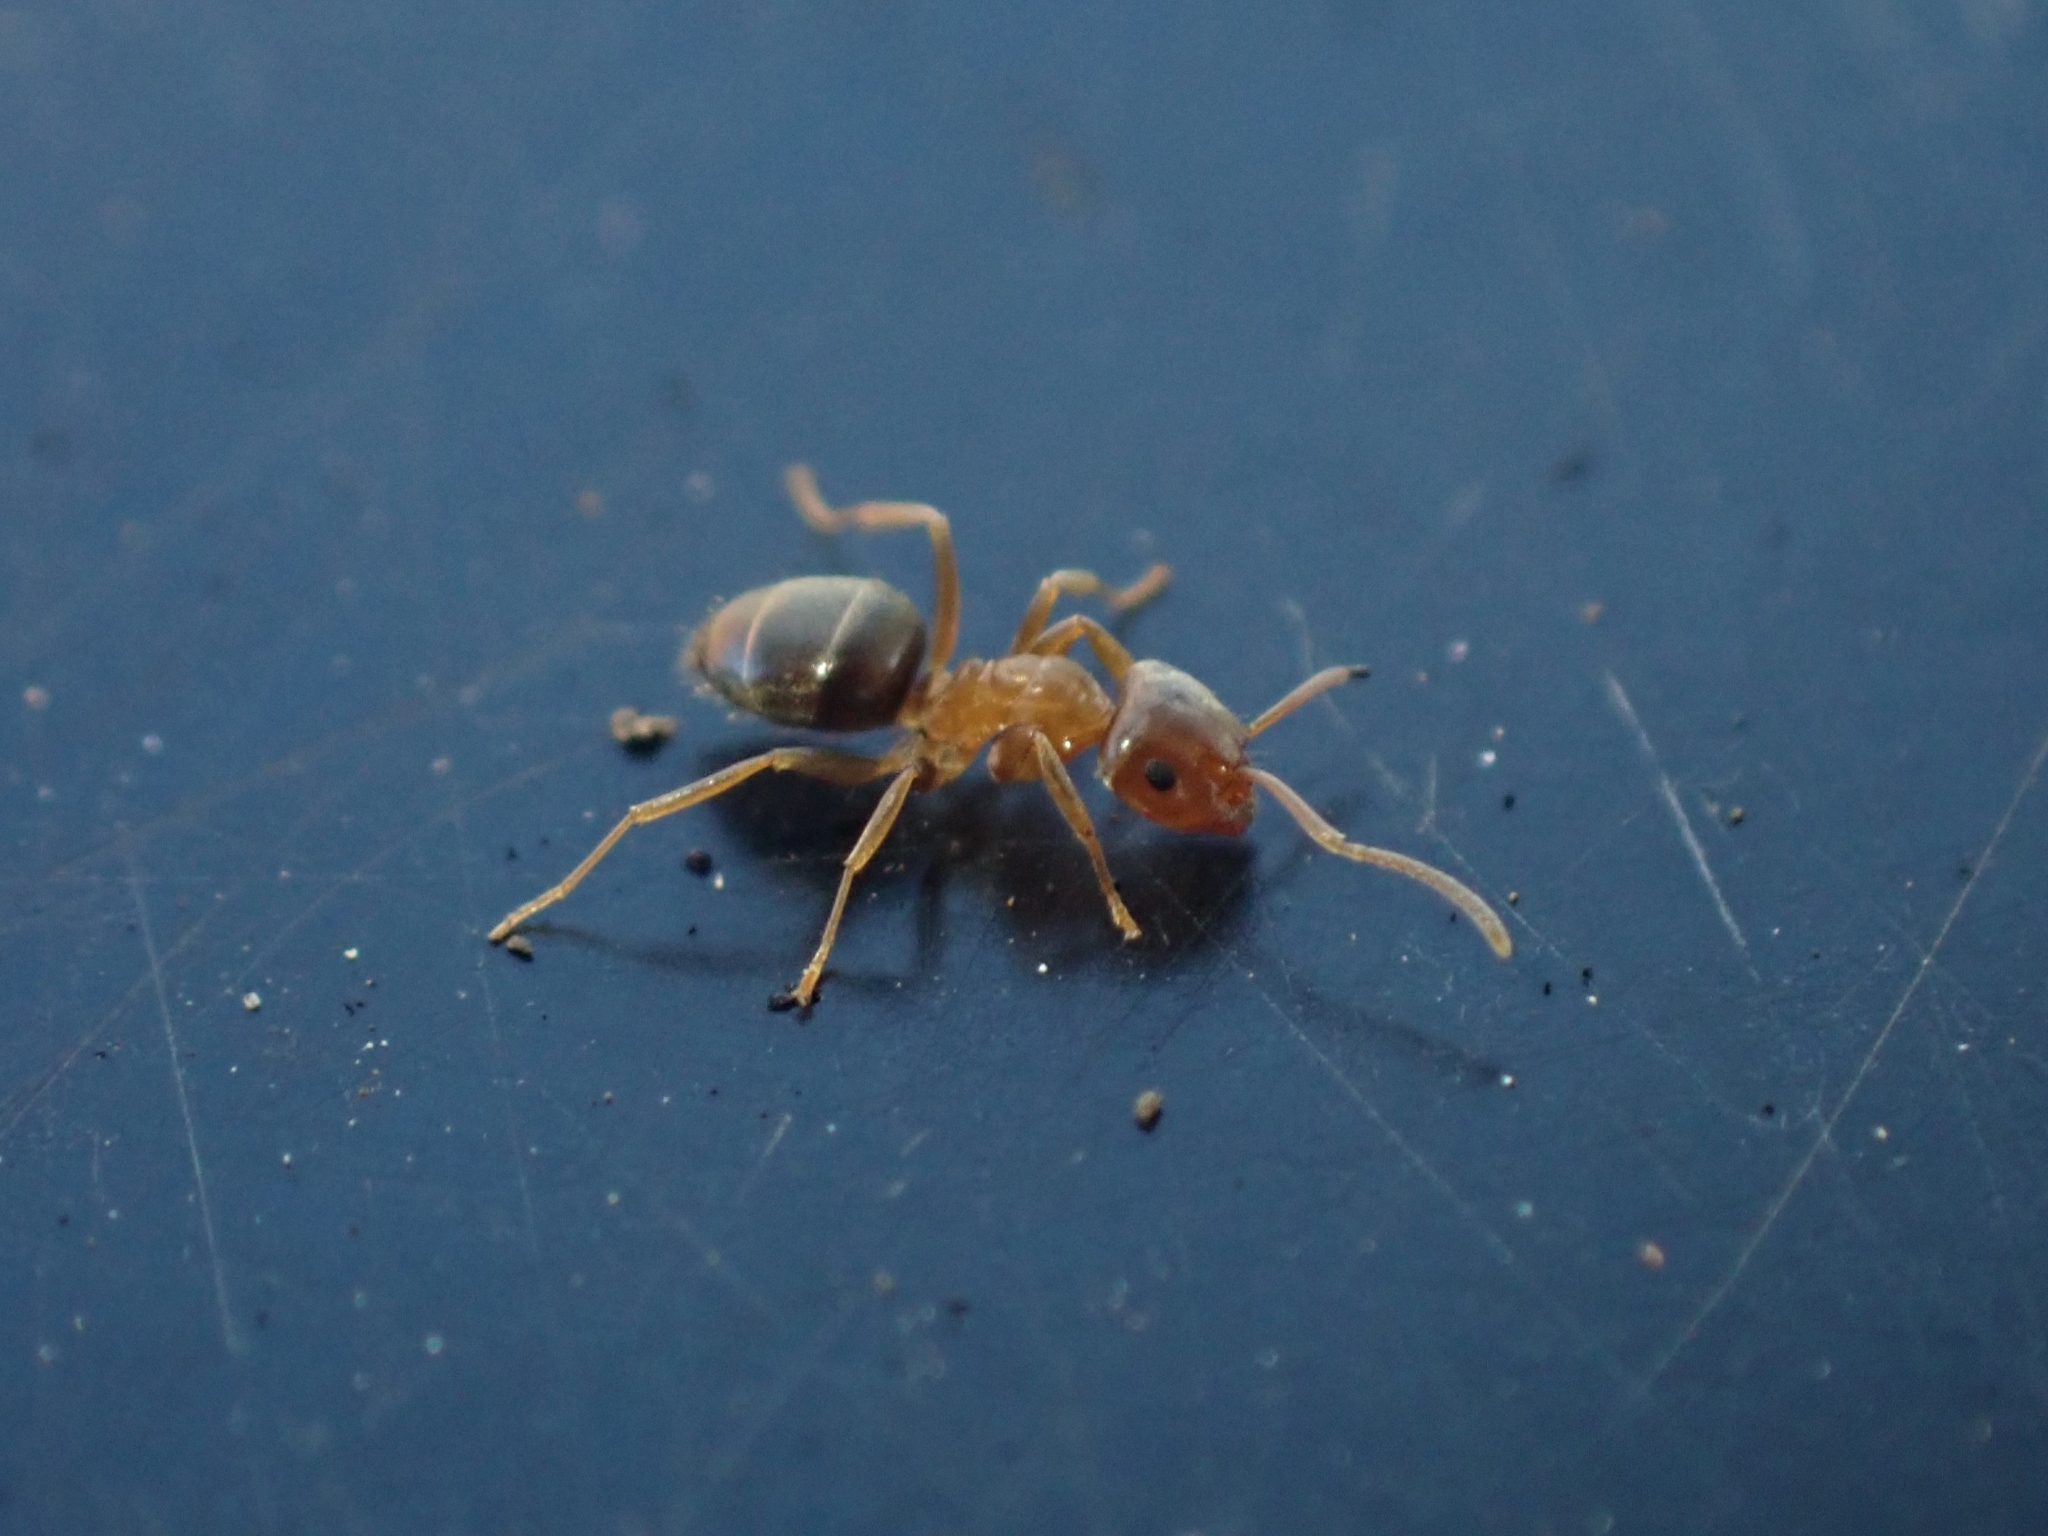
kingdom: Animalia
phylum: Arthropoda
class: Insecta
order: Hymenoptera
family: Formicidae
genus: Lasius
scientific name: Lasius brunneus
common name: Brown ant
